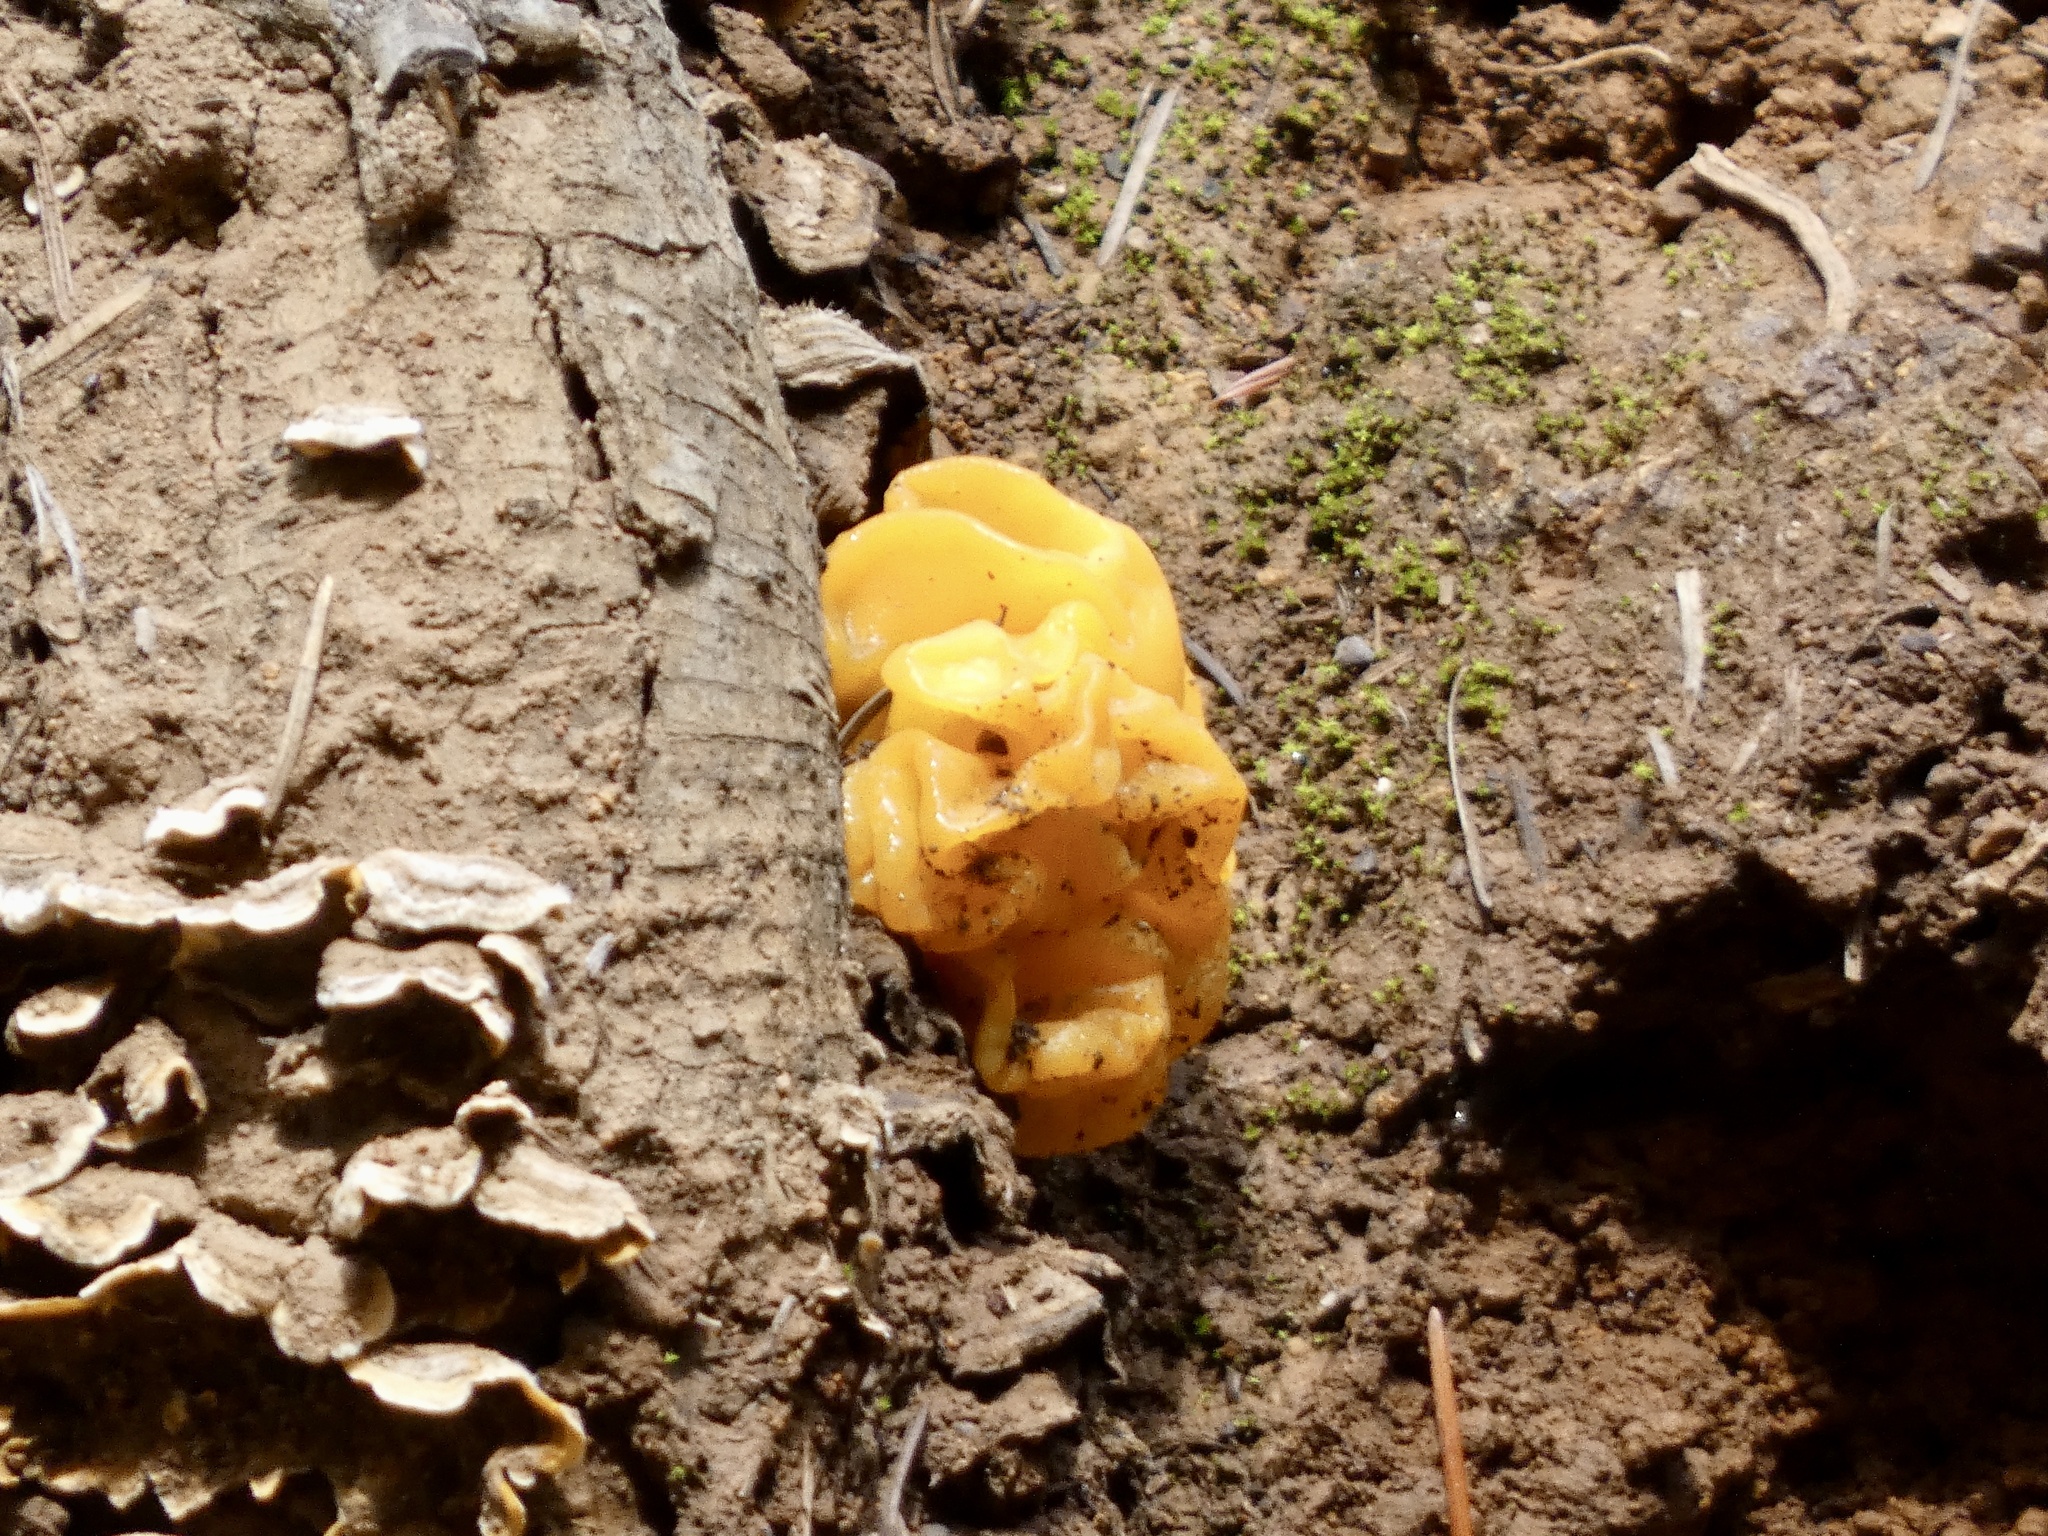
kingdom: Fungi
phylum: Basidiomycota
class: Tremellomycetes
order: Tremellales
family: Naemateliaceae
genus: Naematelia
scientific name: Naematelia aurantia
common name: Golden ear
